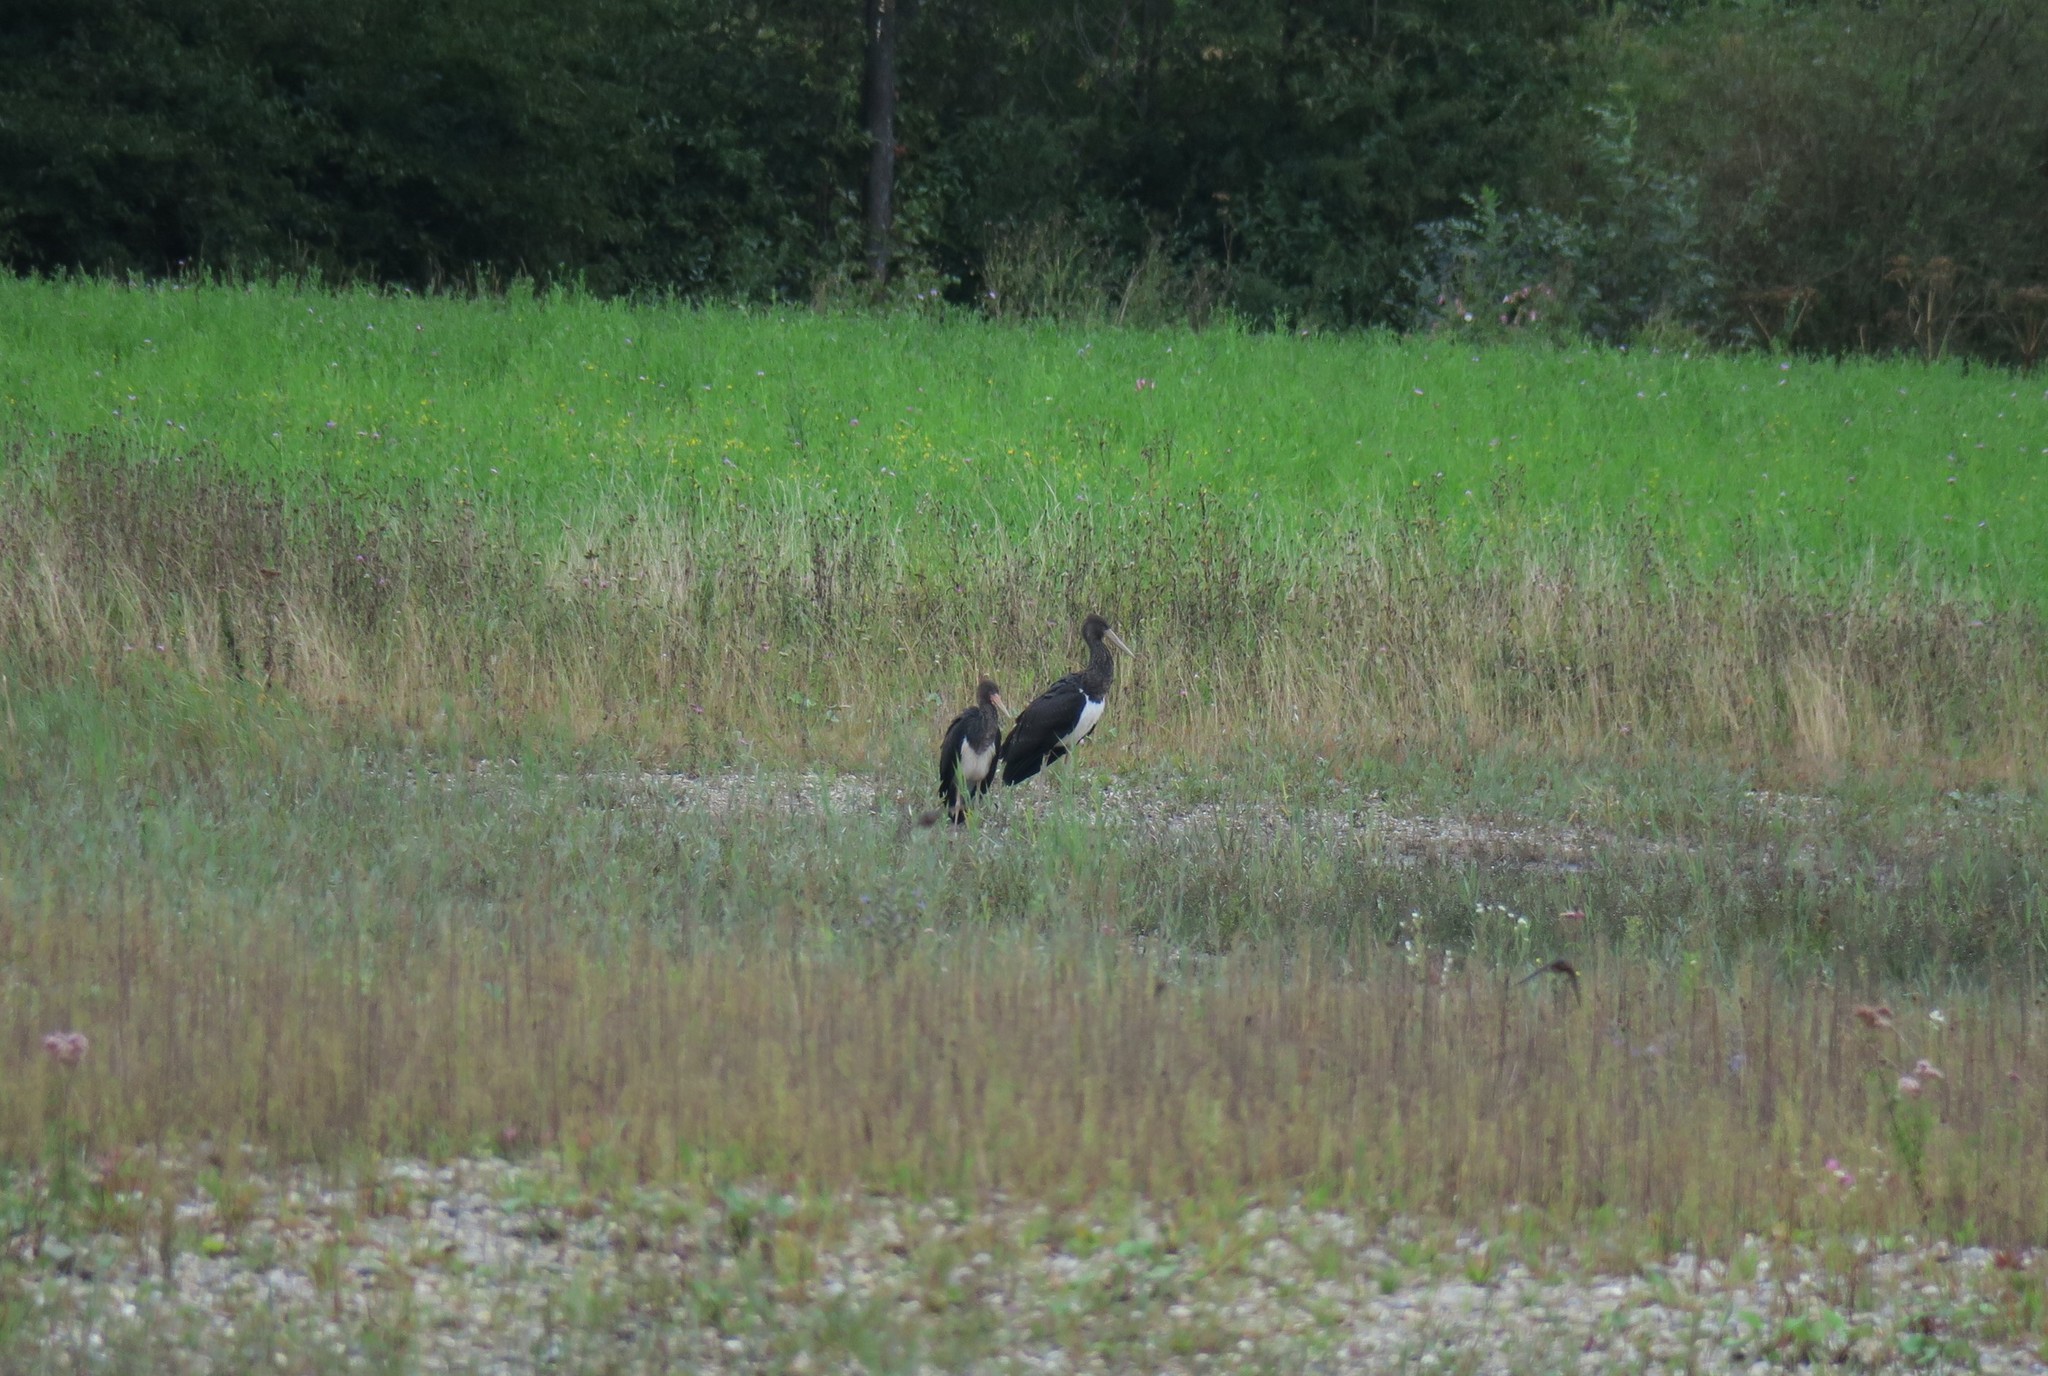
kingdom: Animalia
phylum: Chordata
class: Aves
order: Ciconiiformes
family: Ciconiidae
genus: Ciconia
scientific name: Ciconia nigra
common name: Black stork
